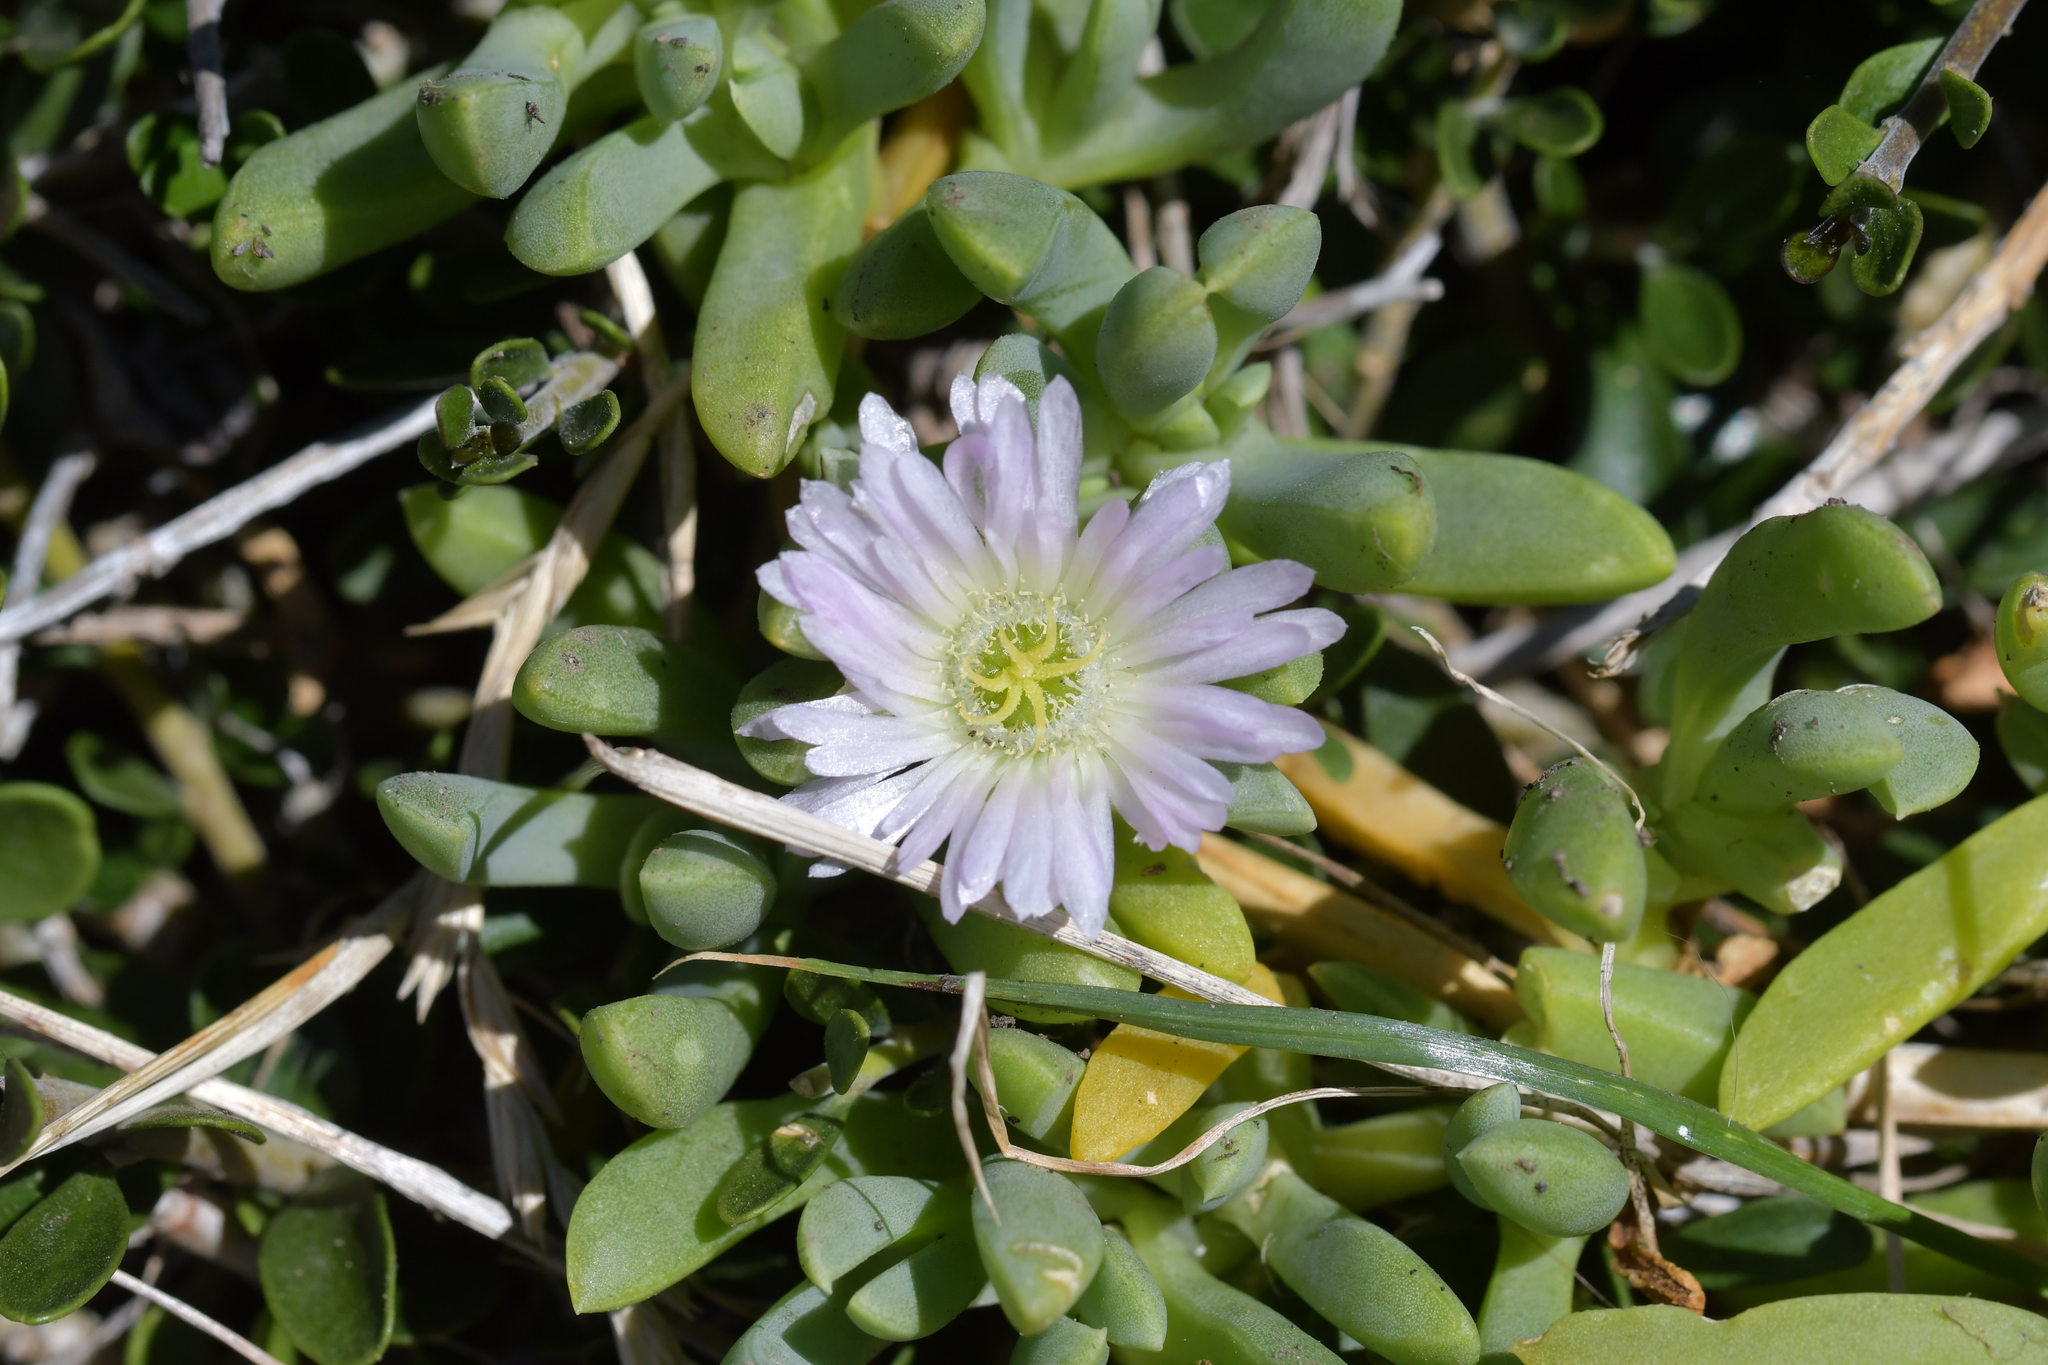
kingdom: Plantae
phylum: Tracheophyta
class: Magnoliopsida
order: Caryophyllales
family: Aizoaceae
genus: Disphyma
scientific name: Disphyma australe
